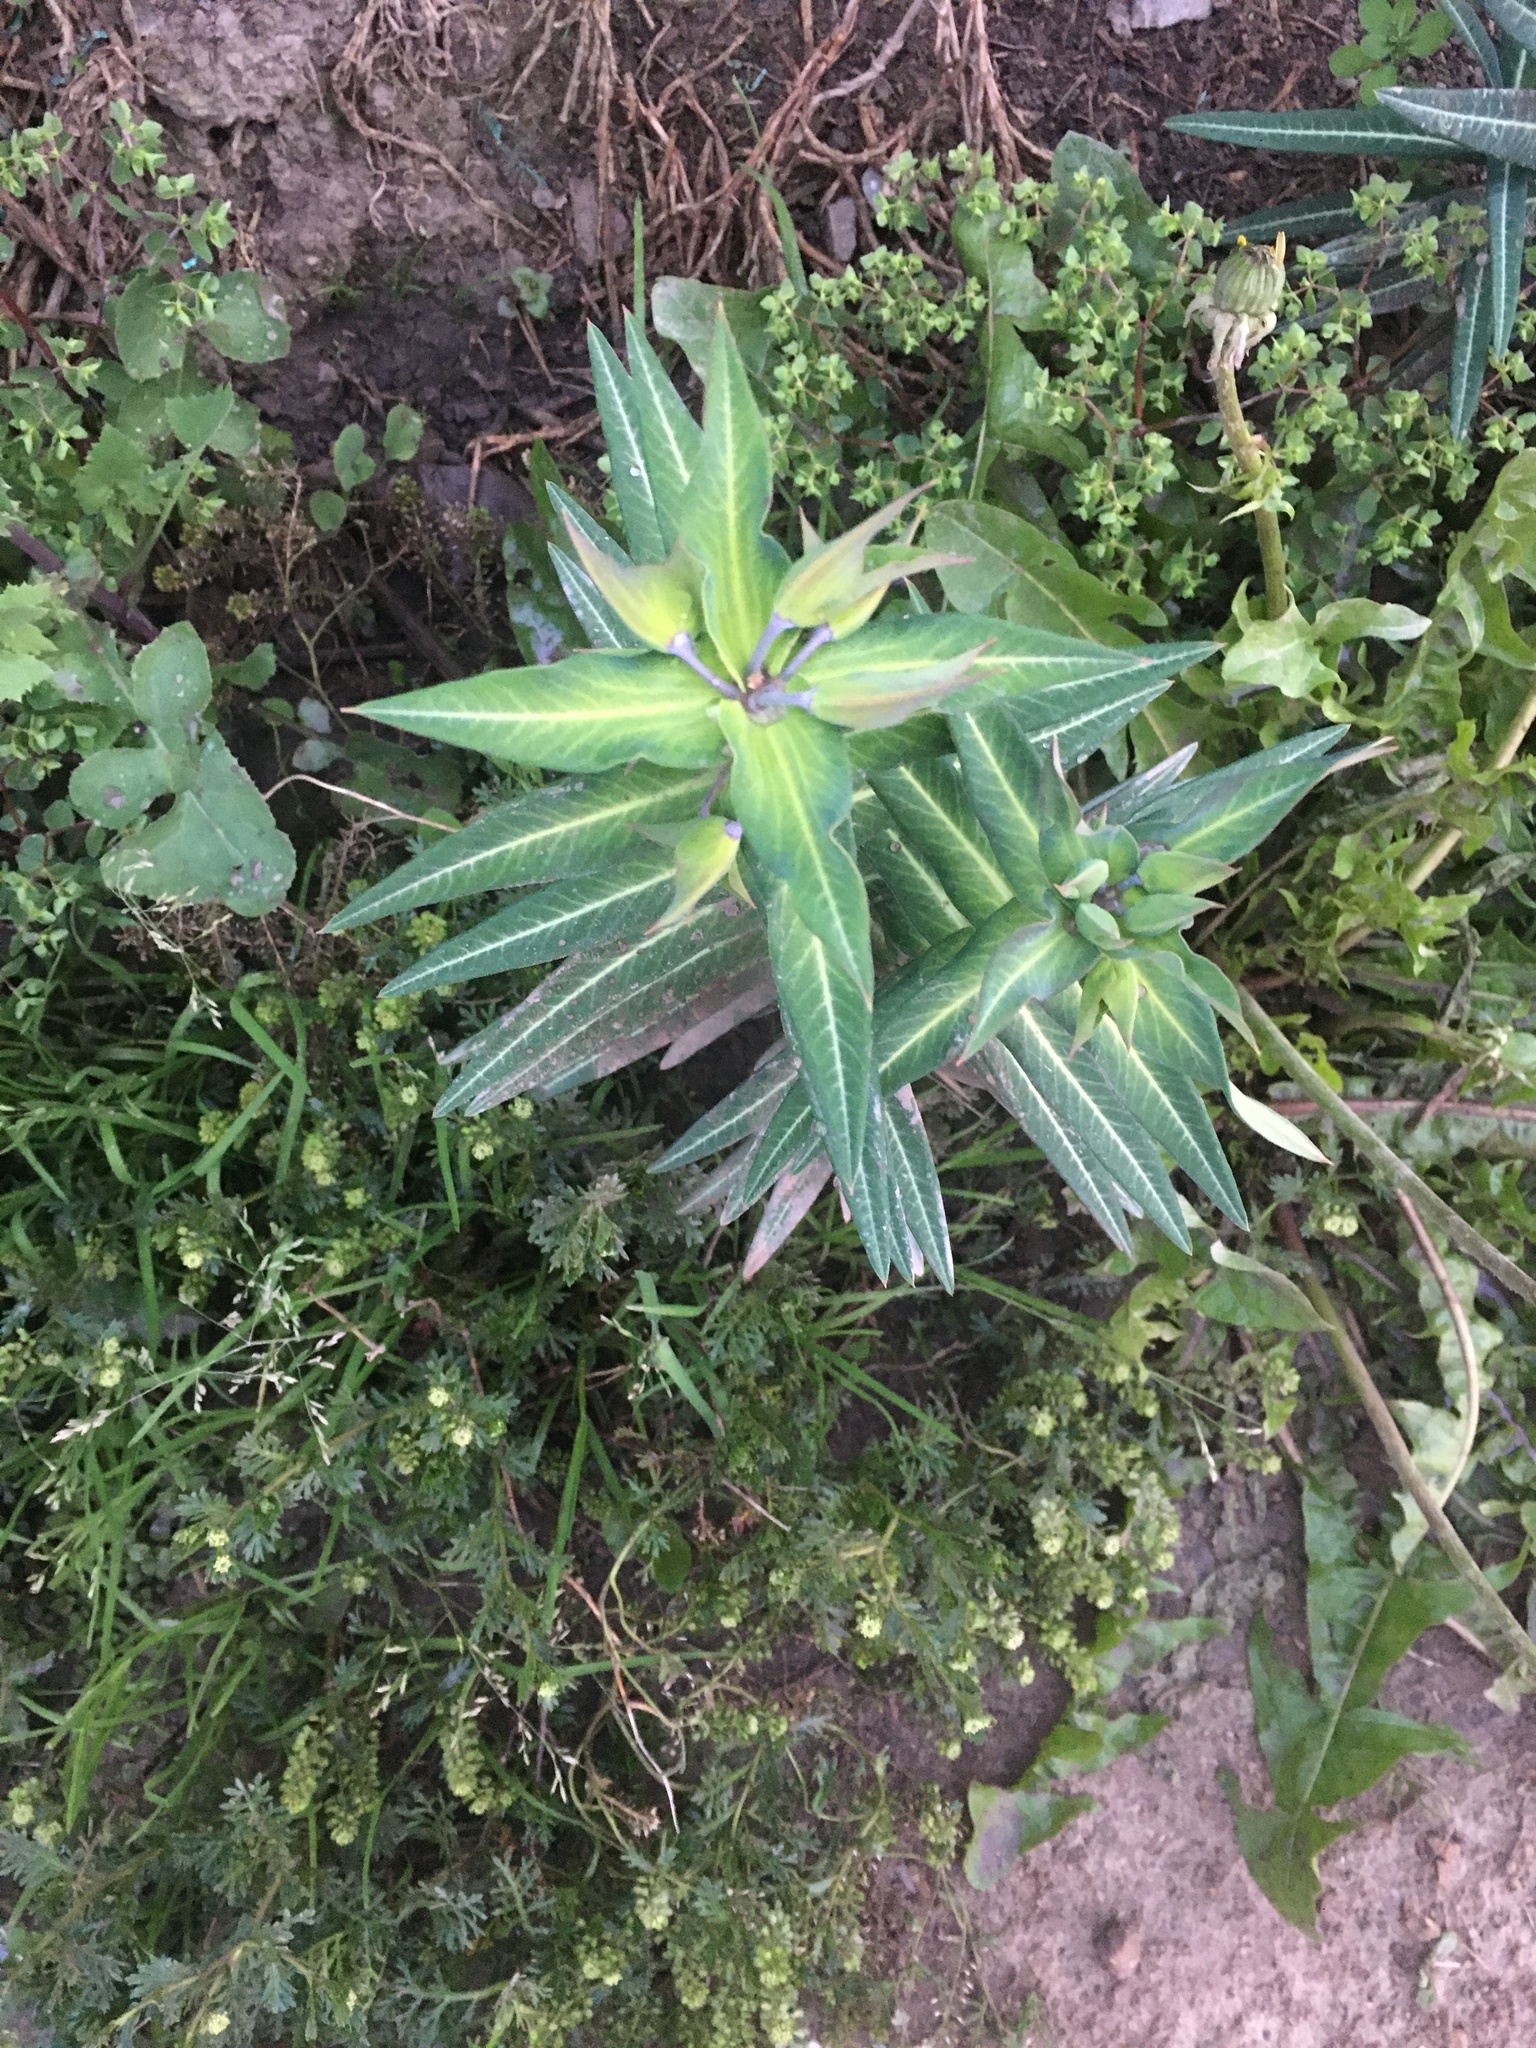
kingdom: Plantae
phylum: Tracheophyta
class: Magnoliopsida
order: Malpighiales
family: Euphorbiaceae
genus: Euphorbia
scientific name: Euphorbia lathyris
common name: Caper spurge
